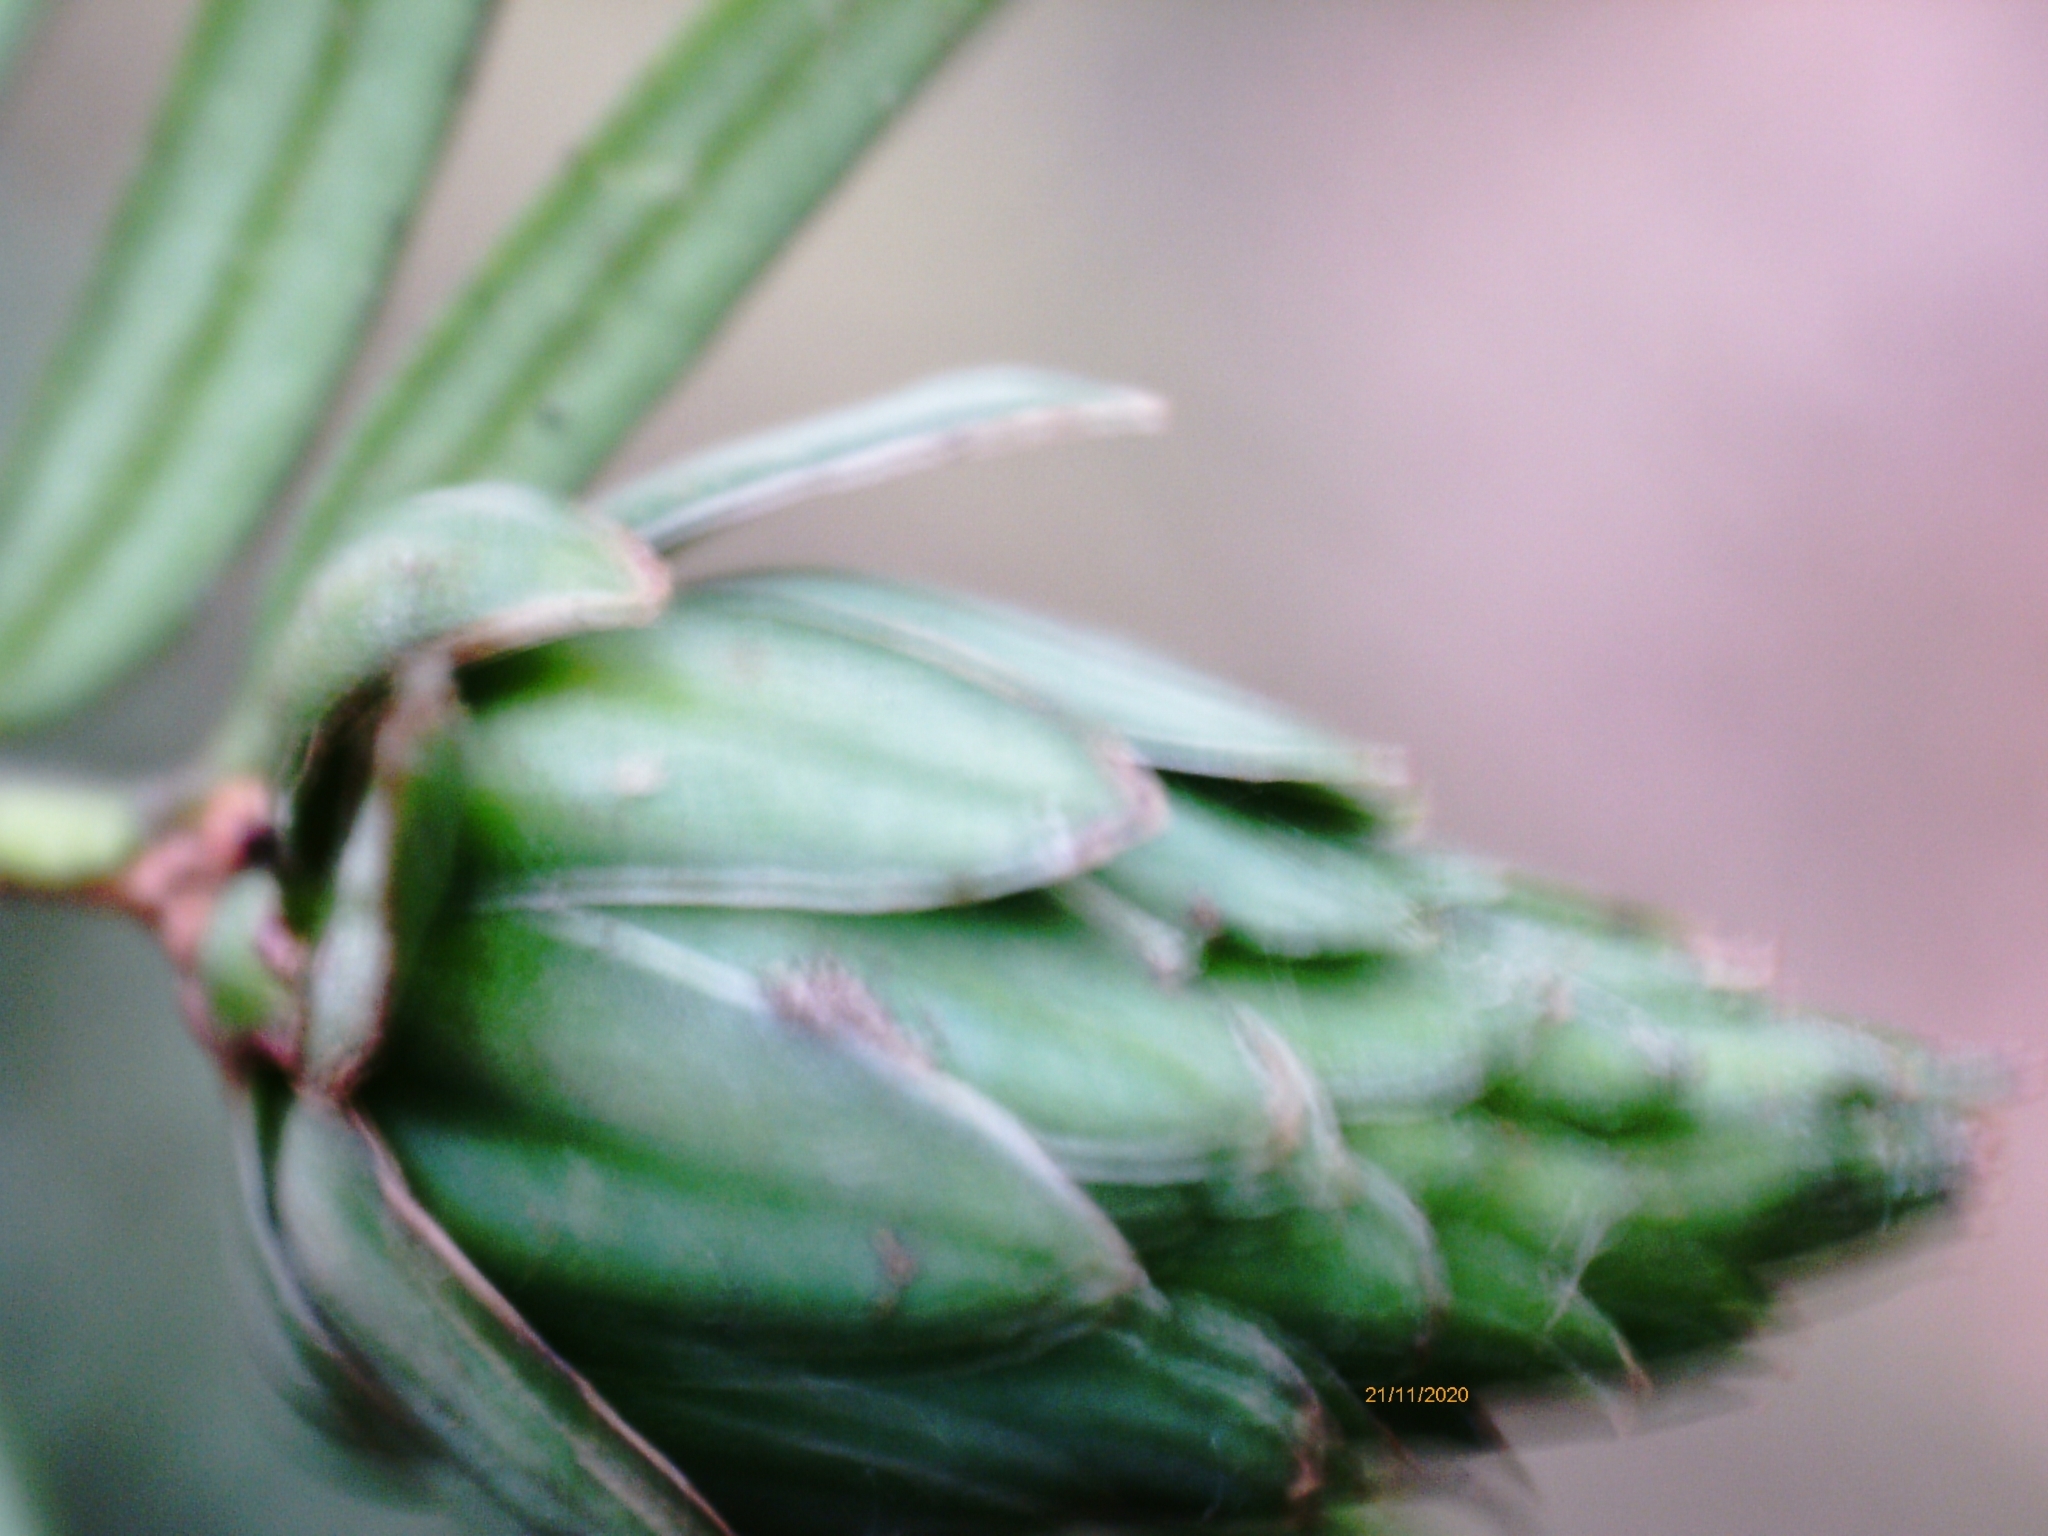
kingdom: Animalia
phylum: Arthropoda
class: Insecta
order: Diptera
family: Cecidomyiidae
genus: Taxomyia
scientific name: Taxomyia taxi
